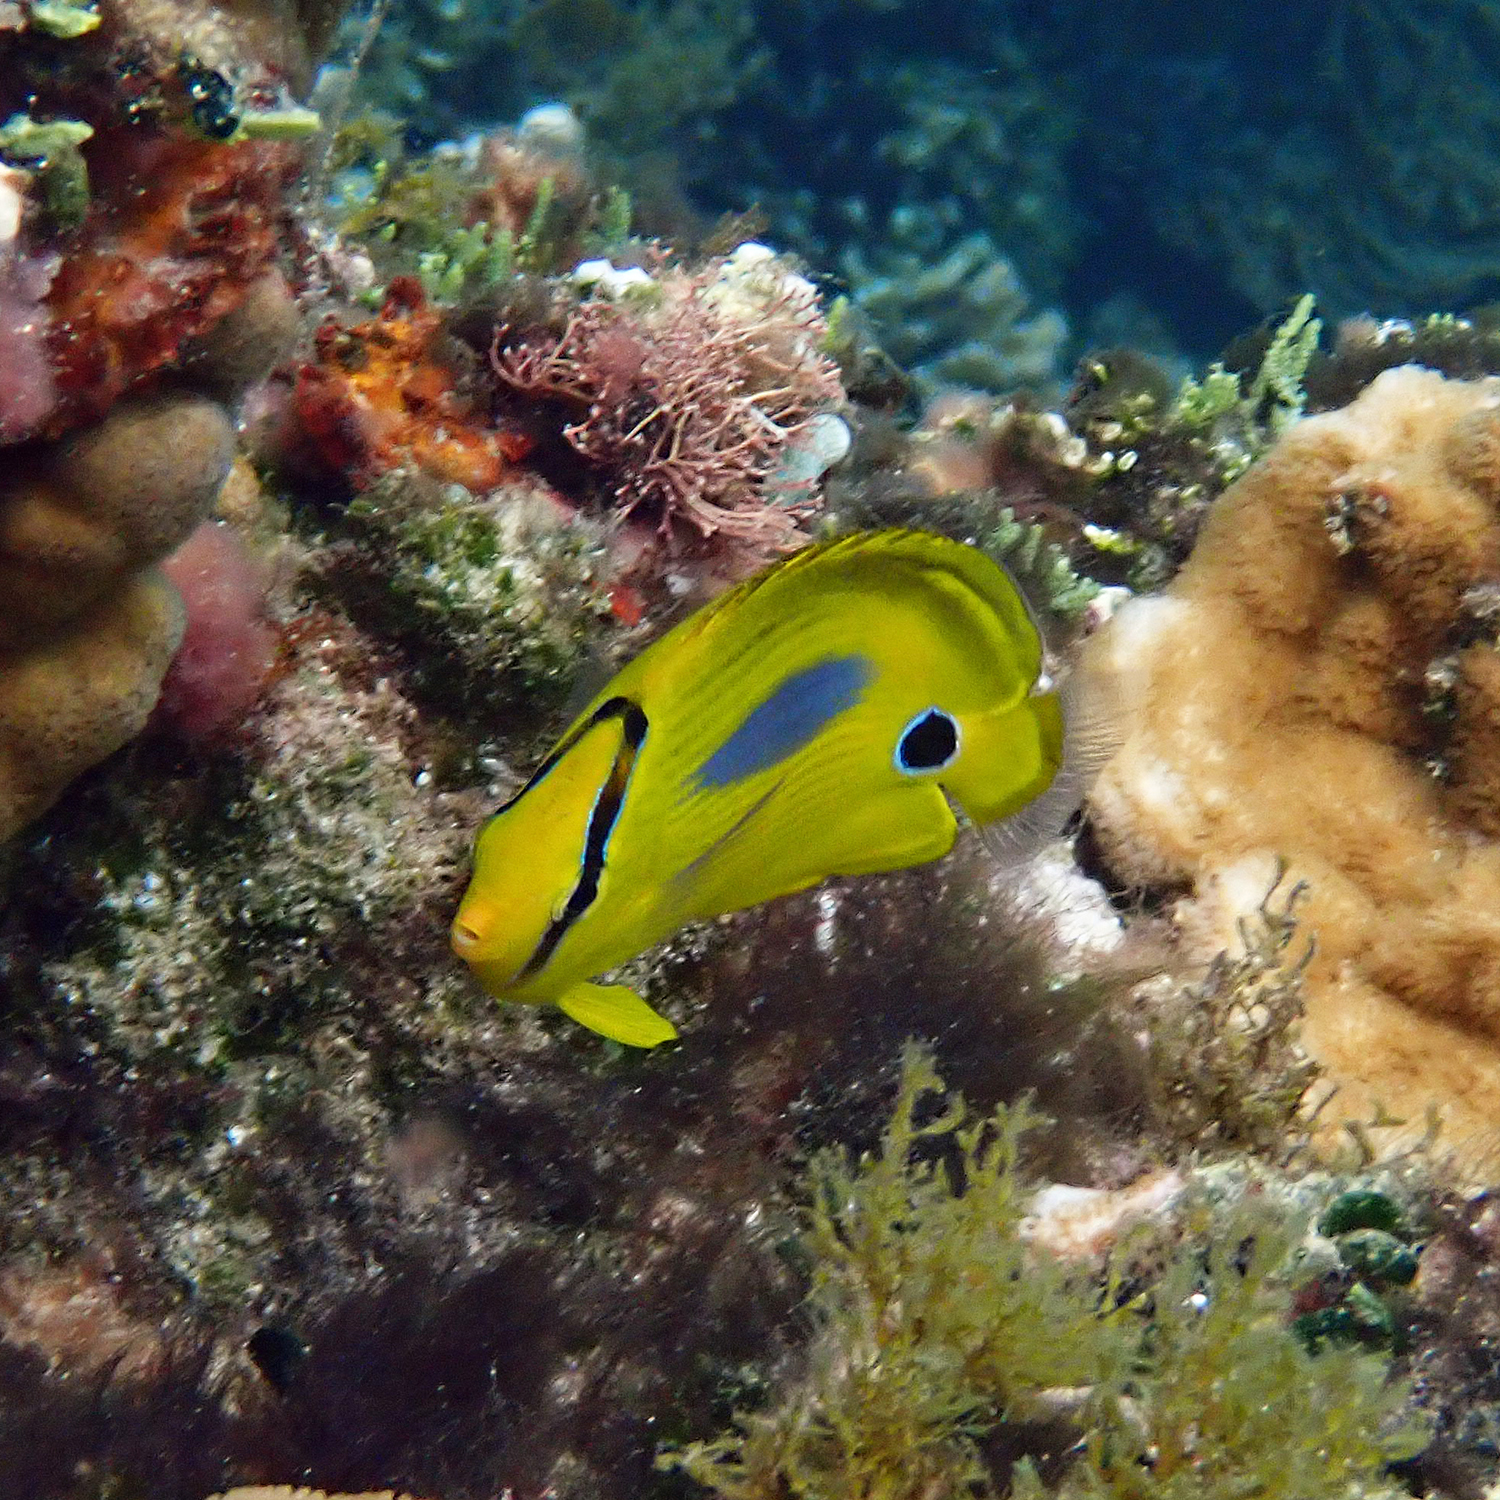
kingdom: Animalia
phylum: Chordata
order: Perciformes
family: Chaetodontidae
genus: Chaetodon
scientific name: Chaetodon plebeius
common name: Bluespot butterflyfish
